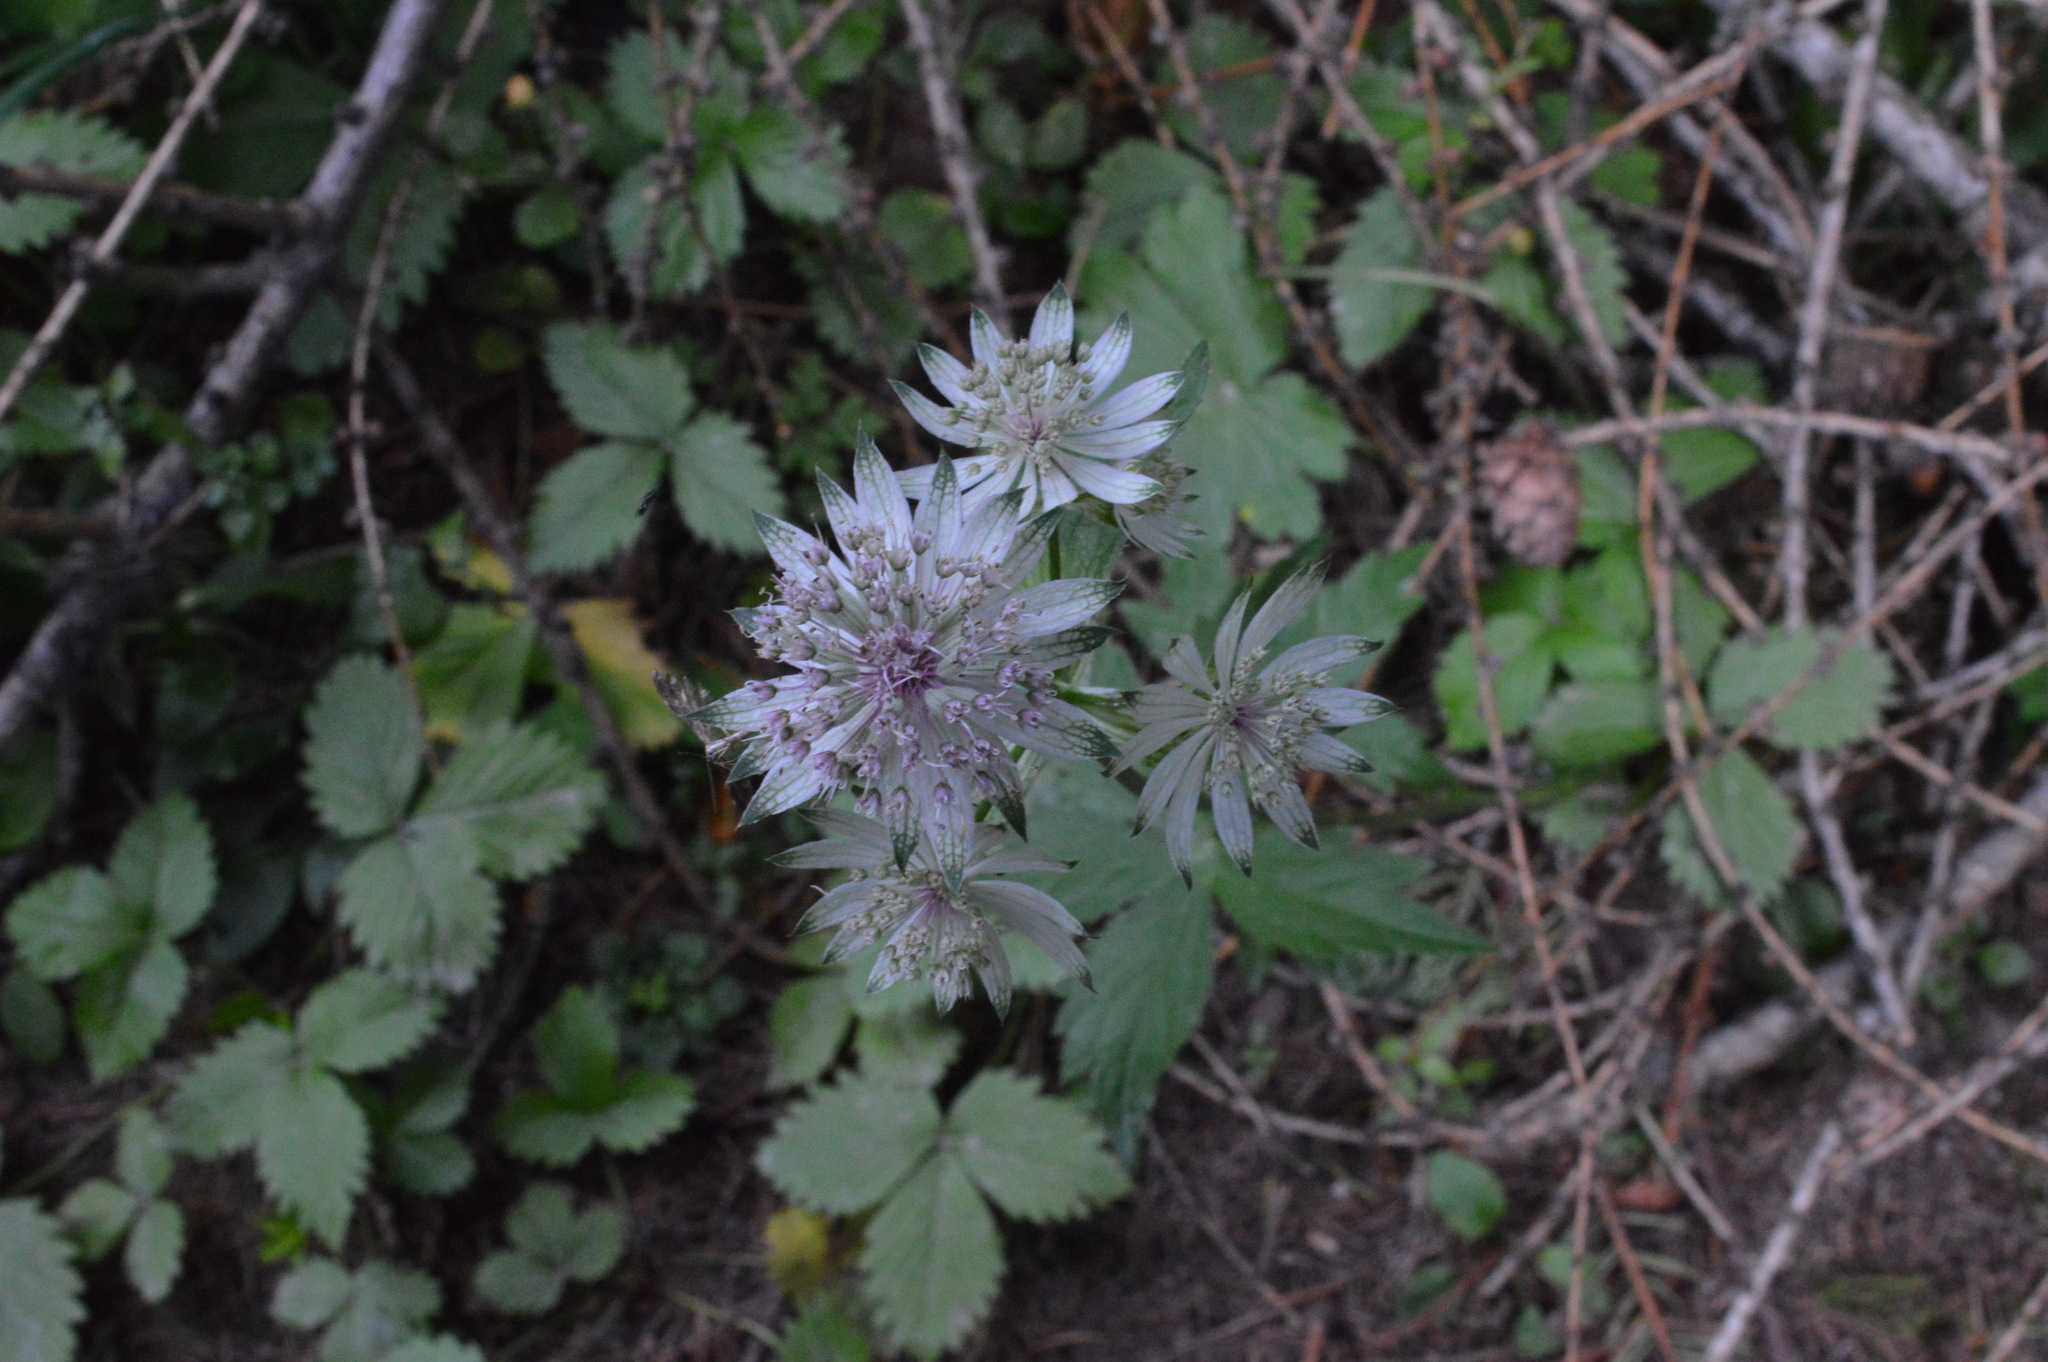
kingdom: Plantae
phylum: Tracheophyta
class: Magnoliopsida
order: Apiales
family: Apiaceae
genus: Astrantia
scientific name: Astrantia major
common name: Greater masterwort
